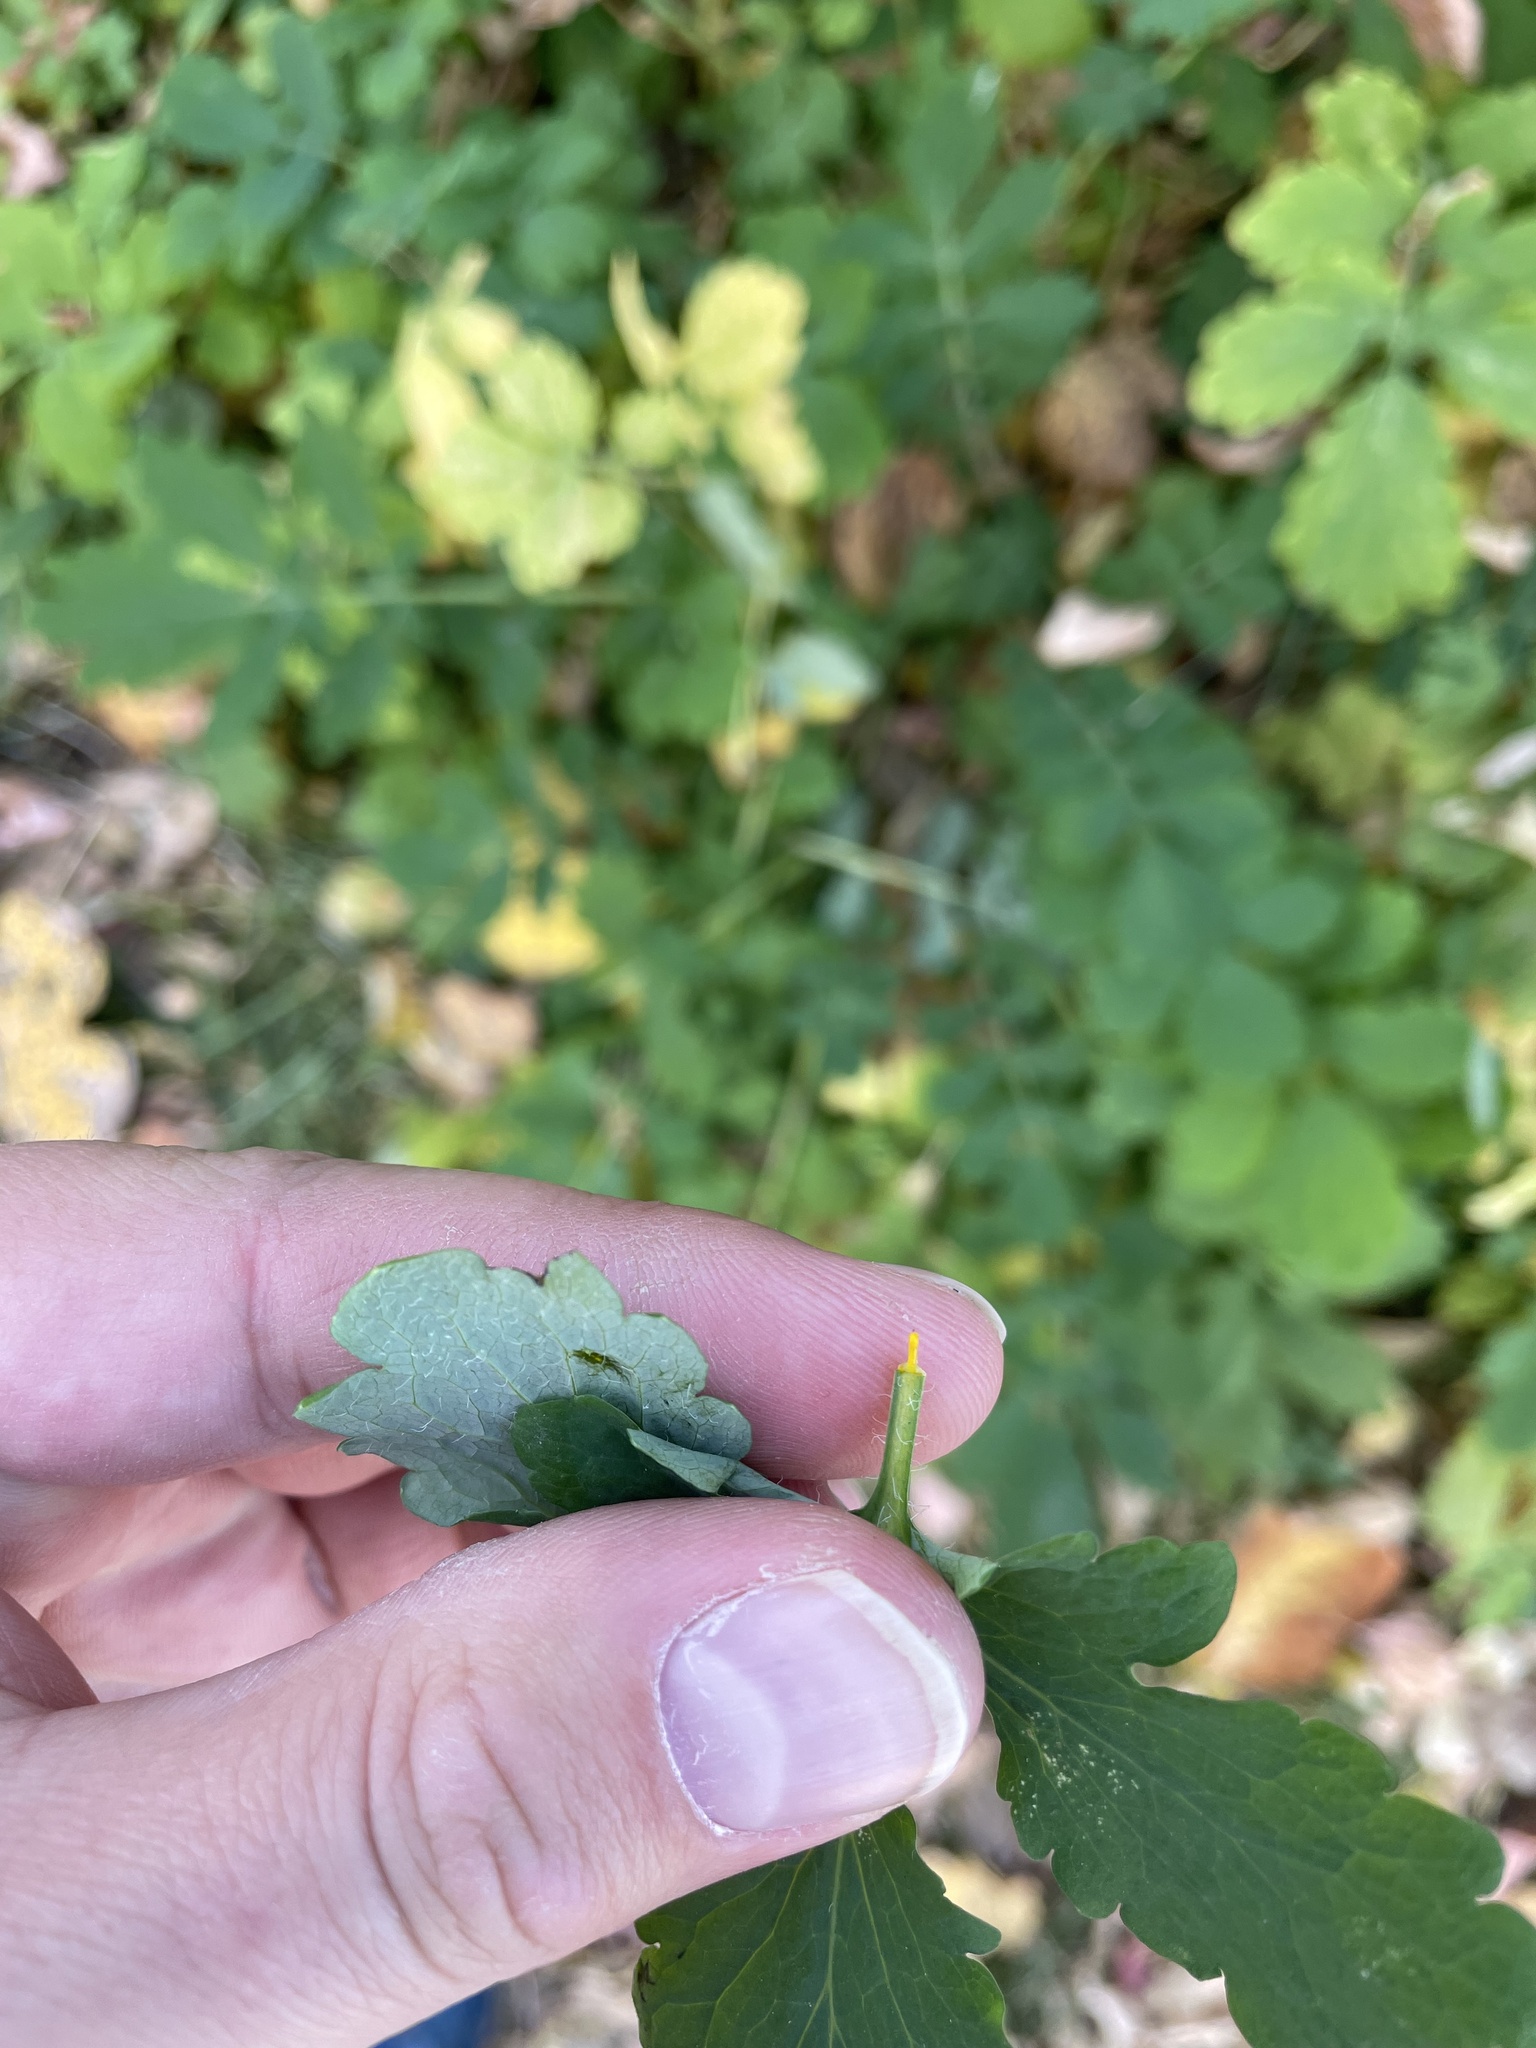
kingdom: Plantae
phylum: Tracheophyta
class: Magnoliopsida
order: Ranunculales
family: Papaveraceae
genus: Chelidonium
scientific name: Chelidonium majus
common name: Greater celandine
